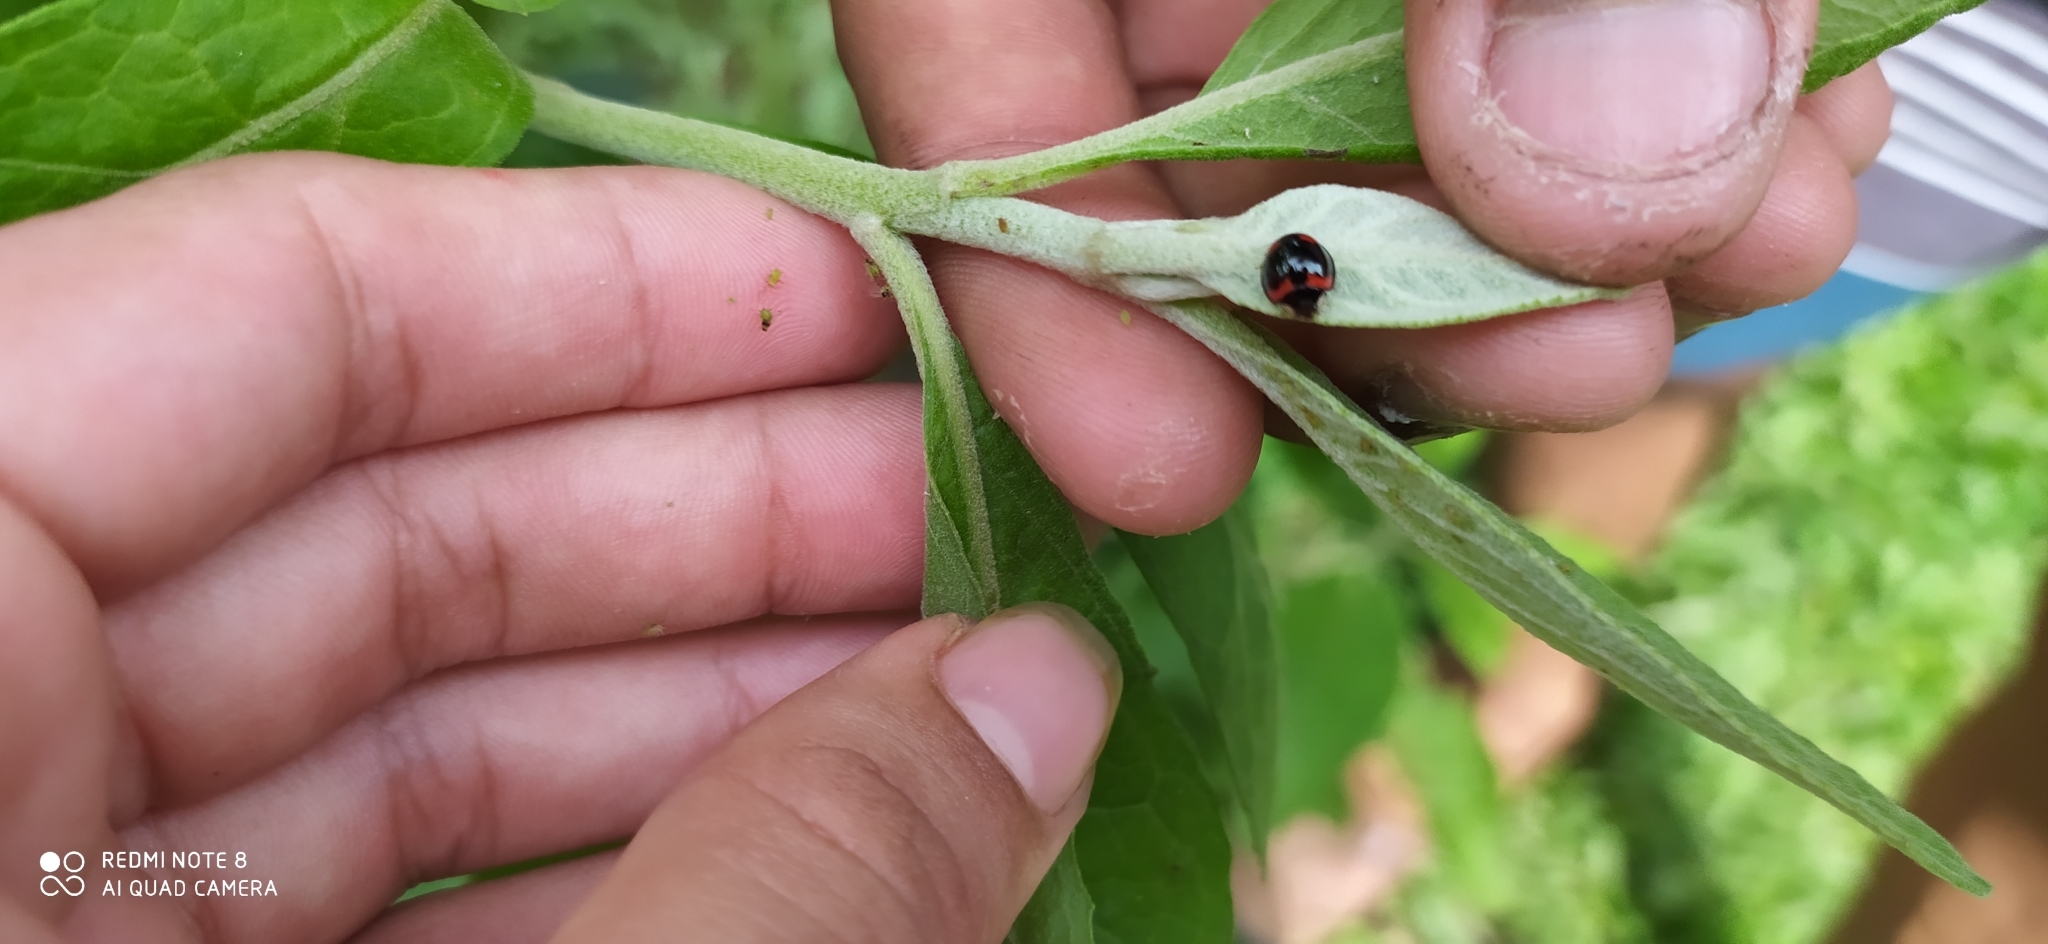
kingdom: Animalia
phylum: Arthropoda
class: Insecta
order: Coleoptera
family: Coccinellidae
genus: Cheilomenes
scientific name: Cheilomenes sexmaculata
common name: Ladybird beetle
